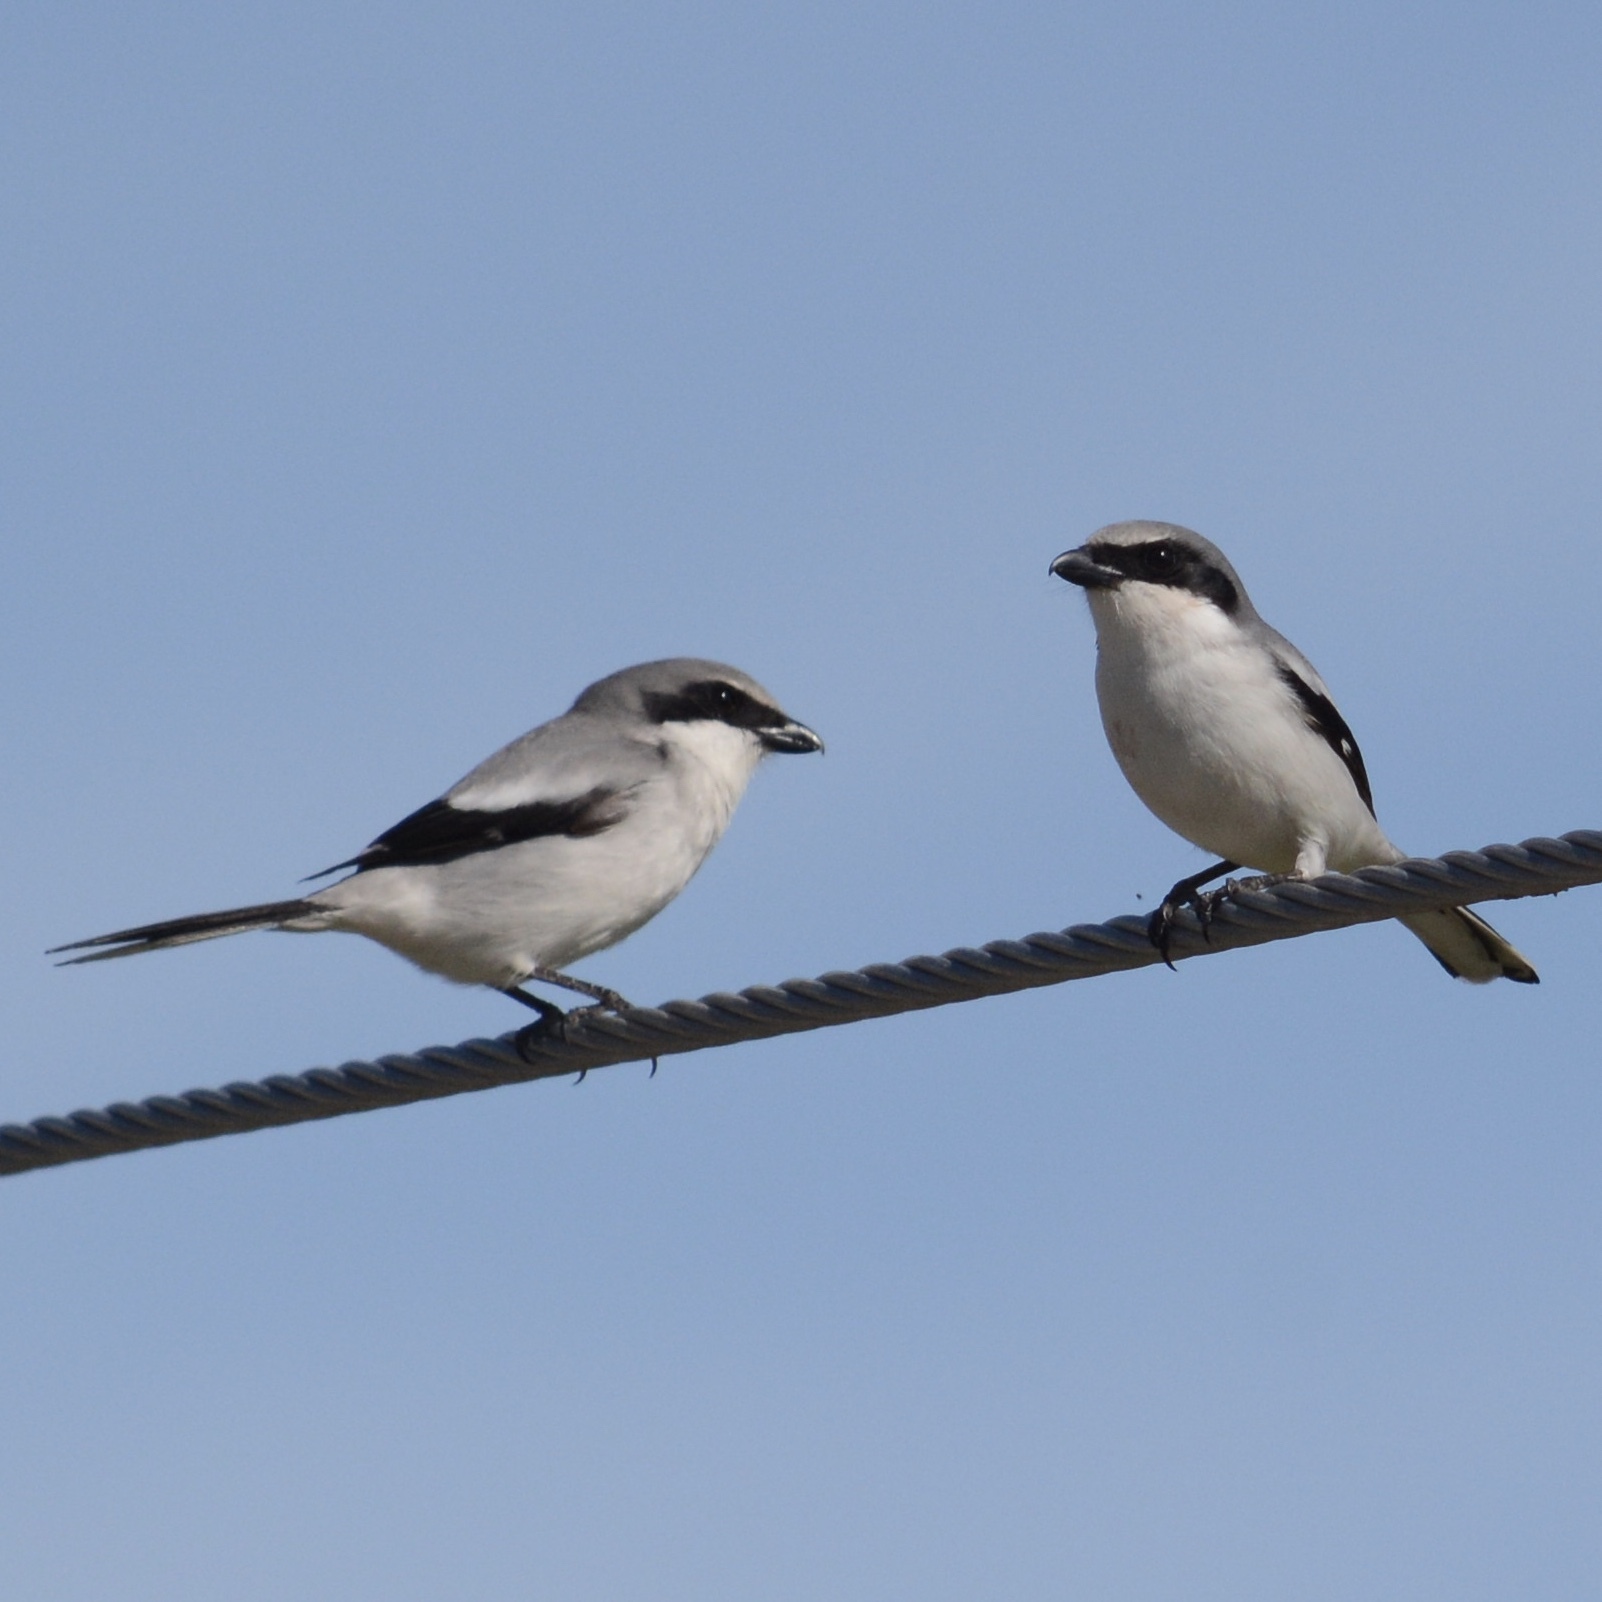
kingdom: Animalia
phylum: Chordata
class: Aves
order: Passeriformes
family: Laniidae
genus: Lanius
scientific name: Lanius ludovicianus
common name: Loggerhead shrike
